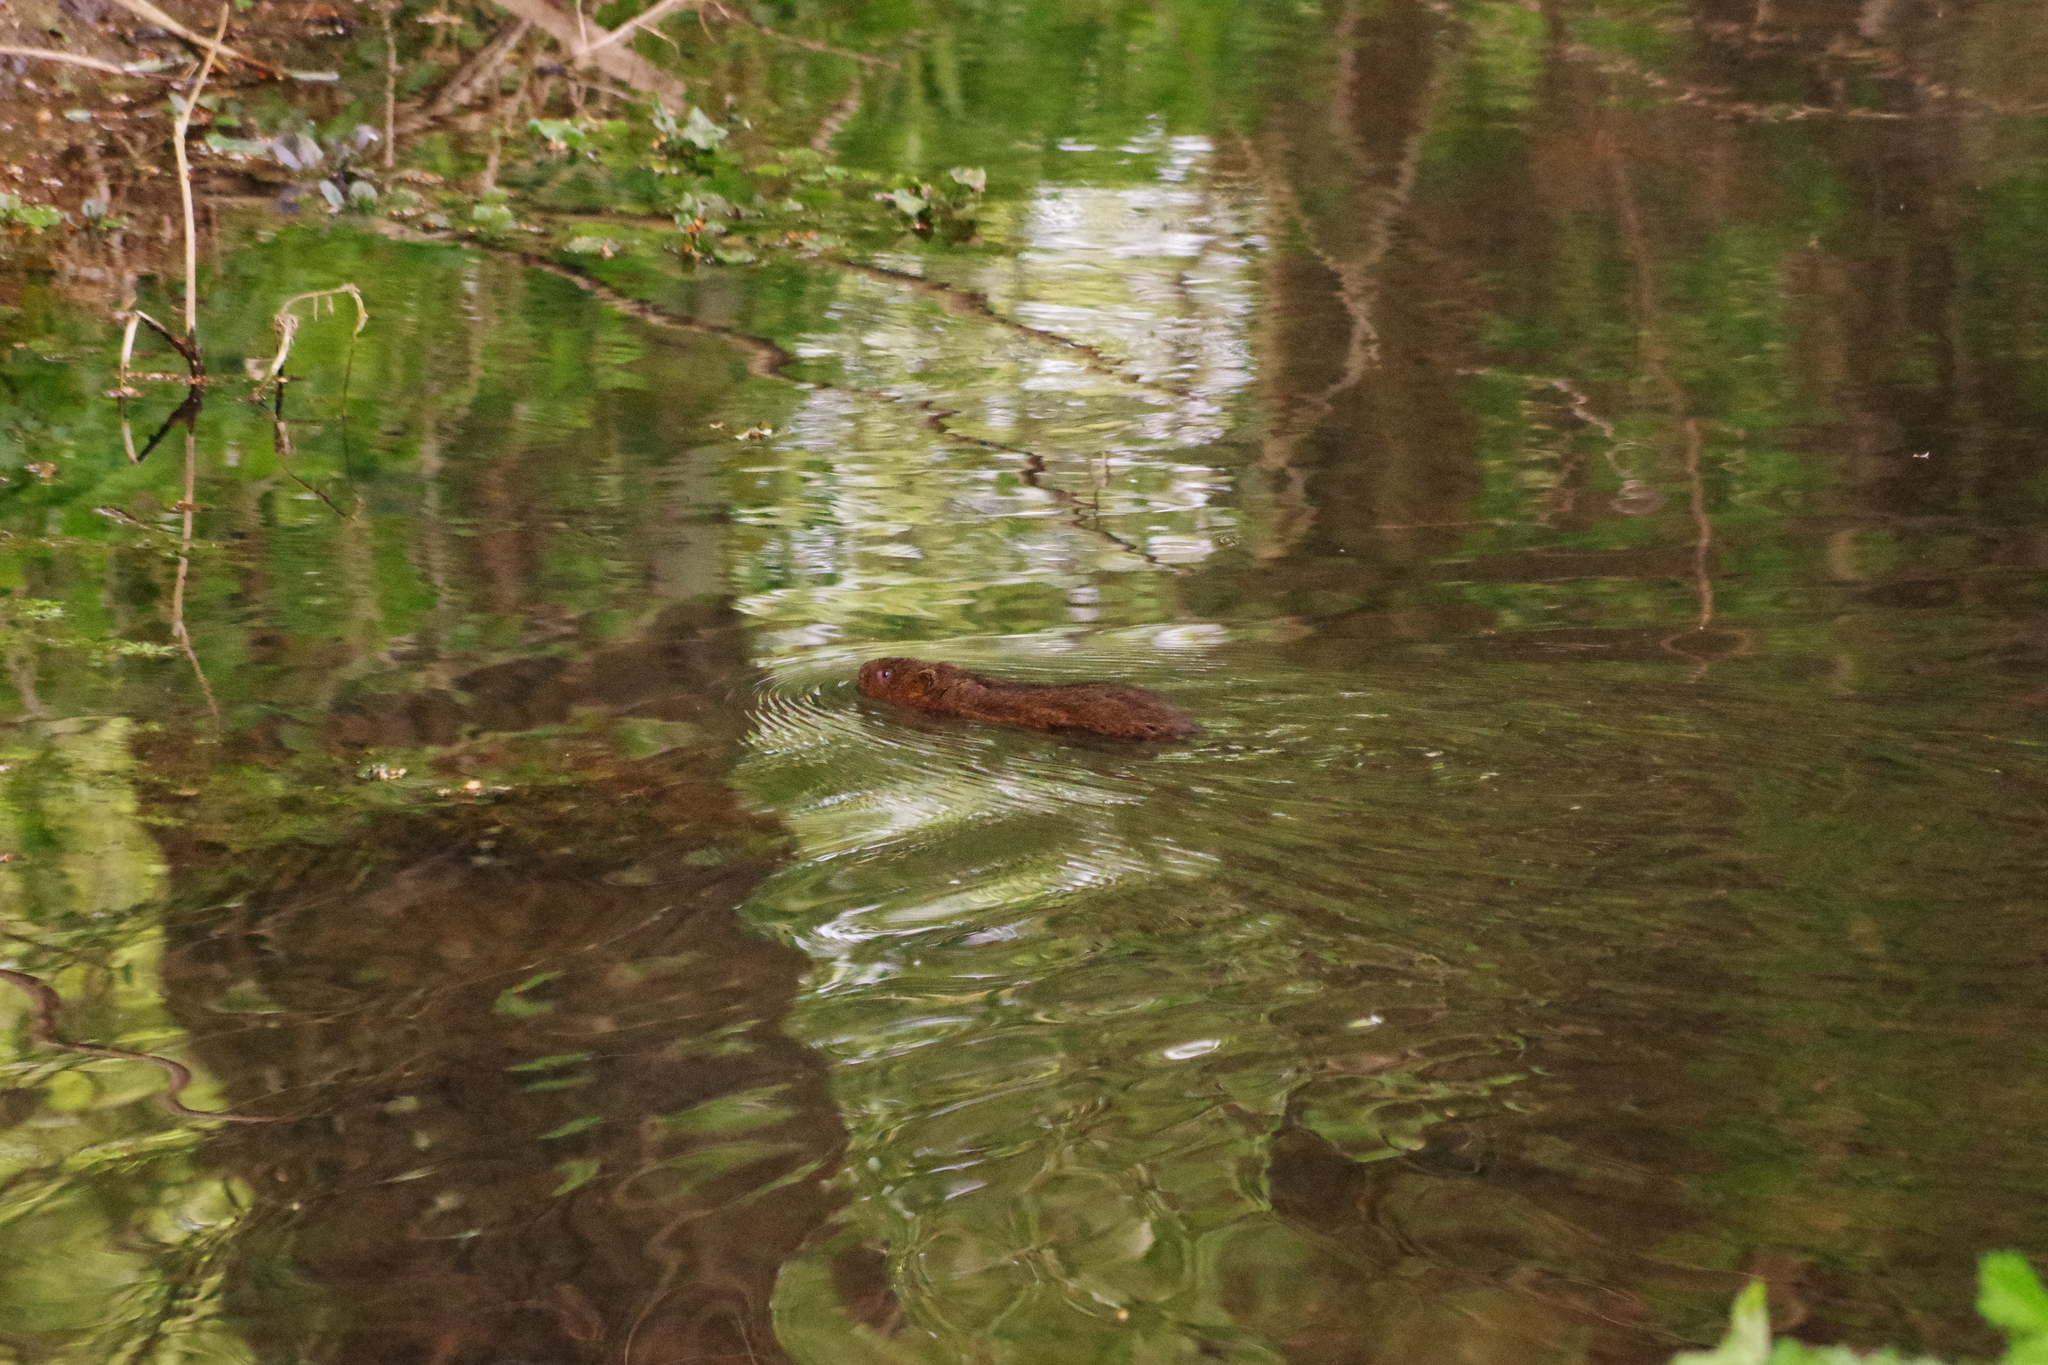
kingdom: Animalia
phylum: Chordata
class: Mammalia
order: Rodentia
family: Cricetidae
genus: Arvicola
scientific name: Arvicola amphibius
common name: European water vole
